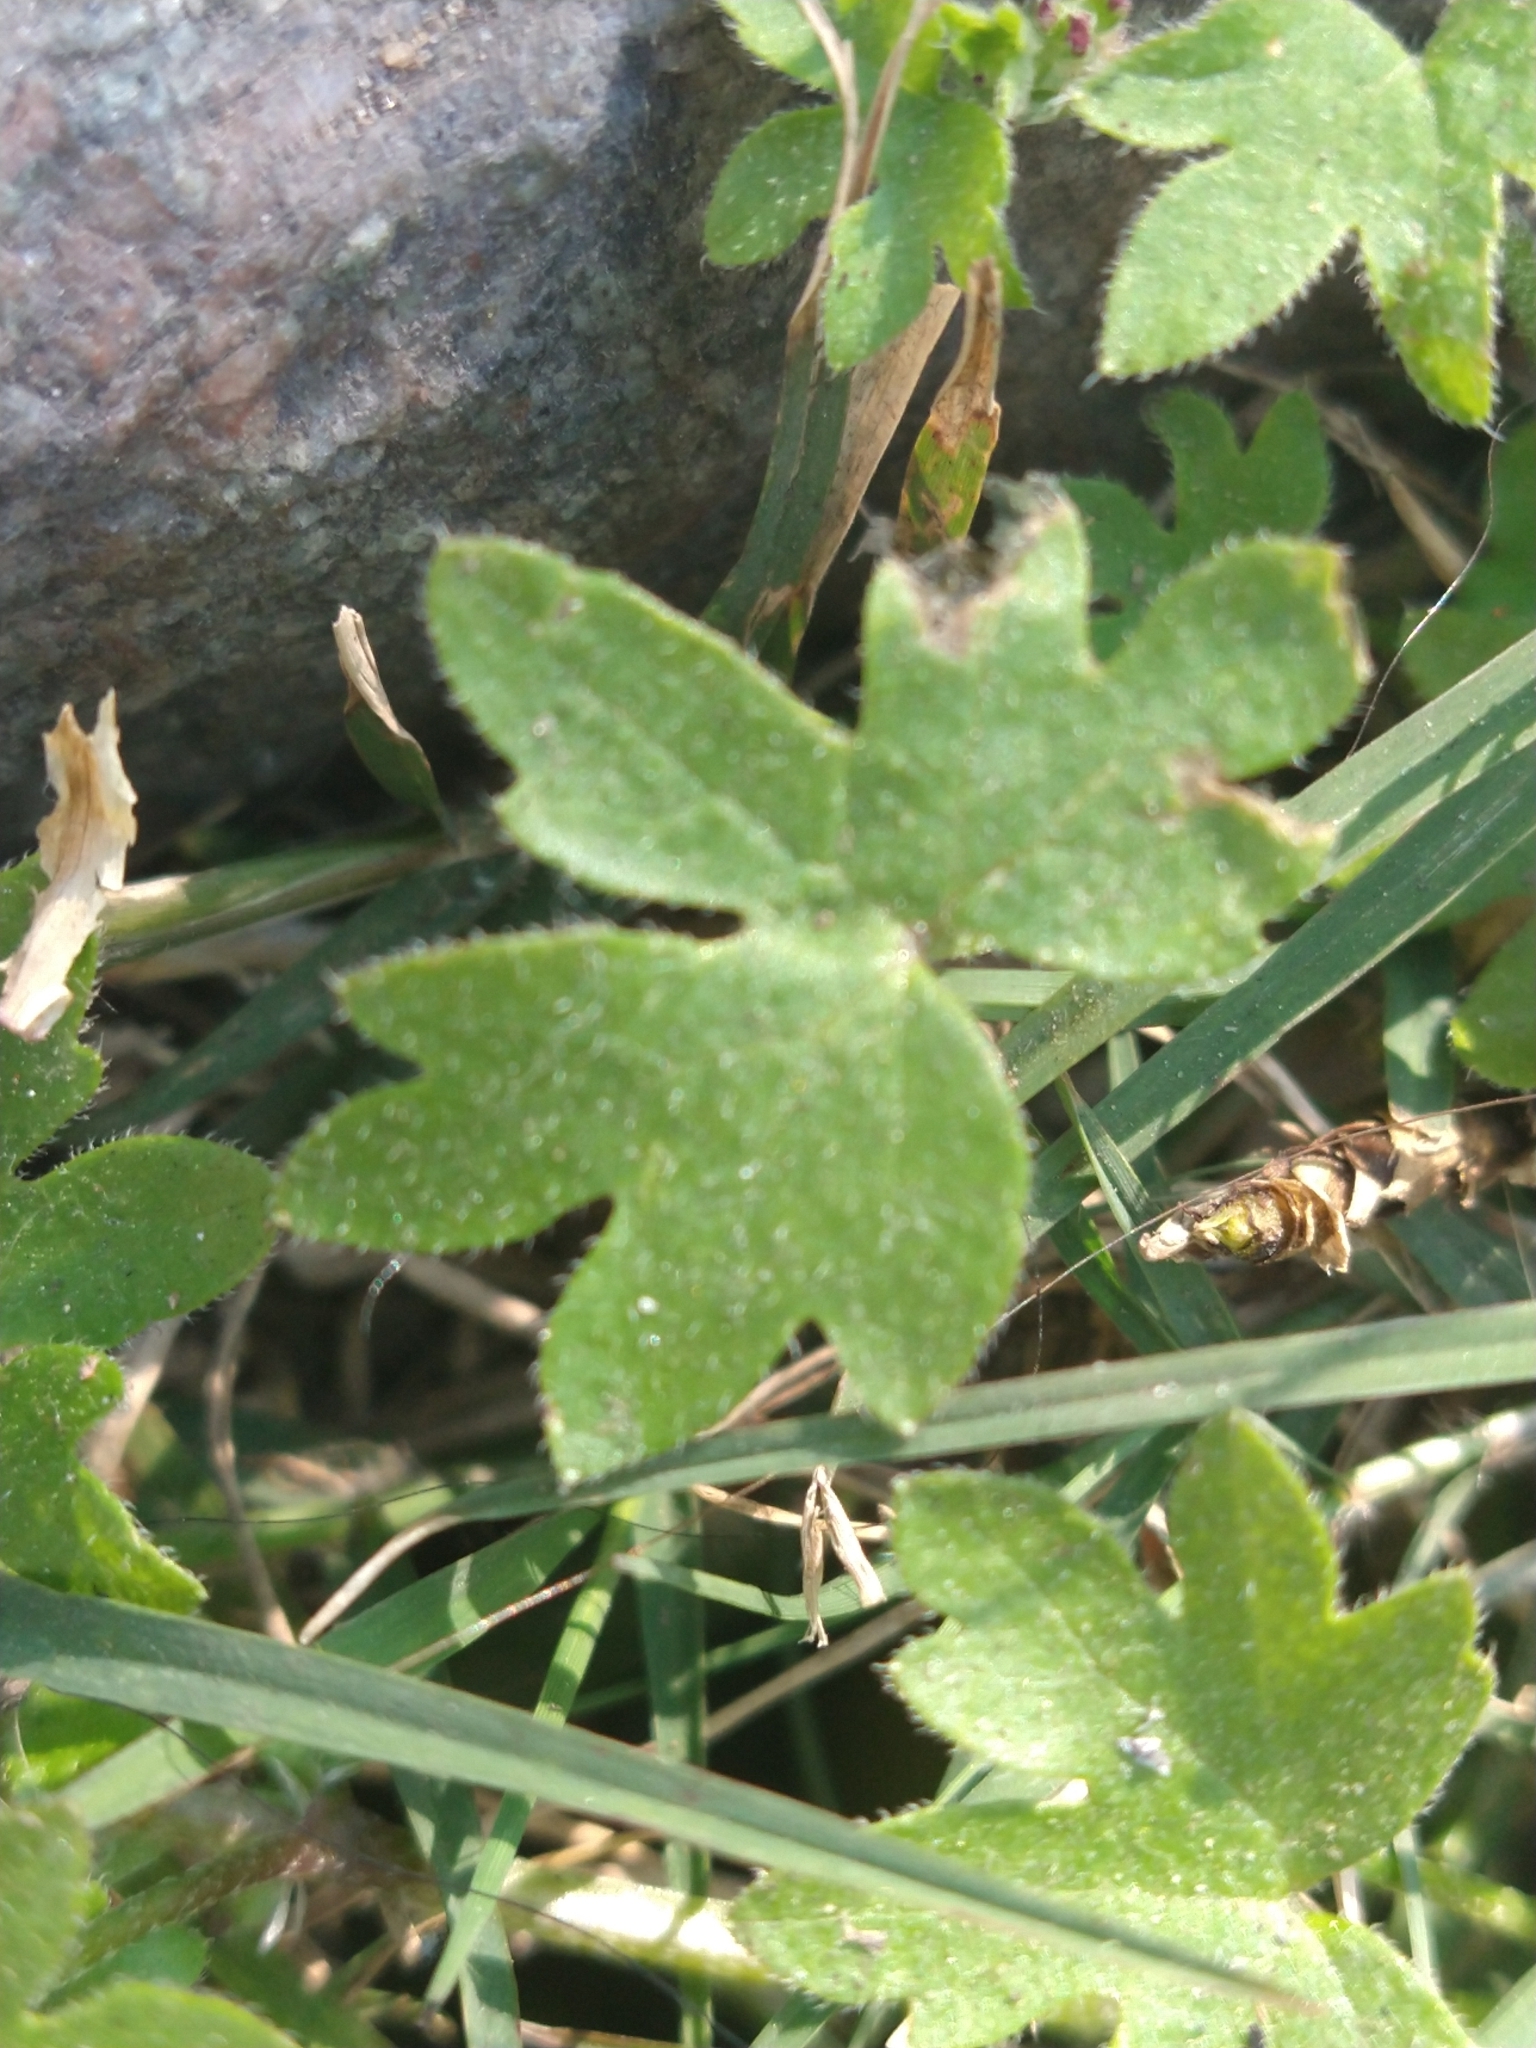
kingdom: Plantae
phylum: Tracheophyta
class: Magnoliopsida
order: Apiales
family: Apiaceae
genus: Bowlesia
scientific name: Bowlesia incana
